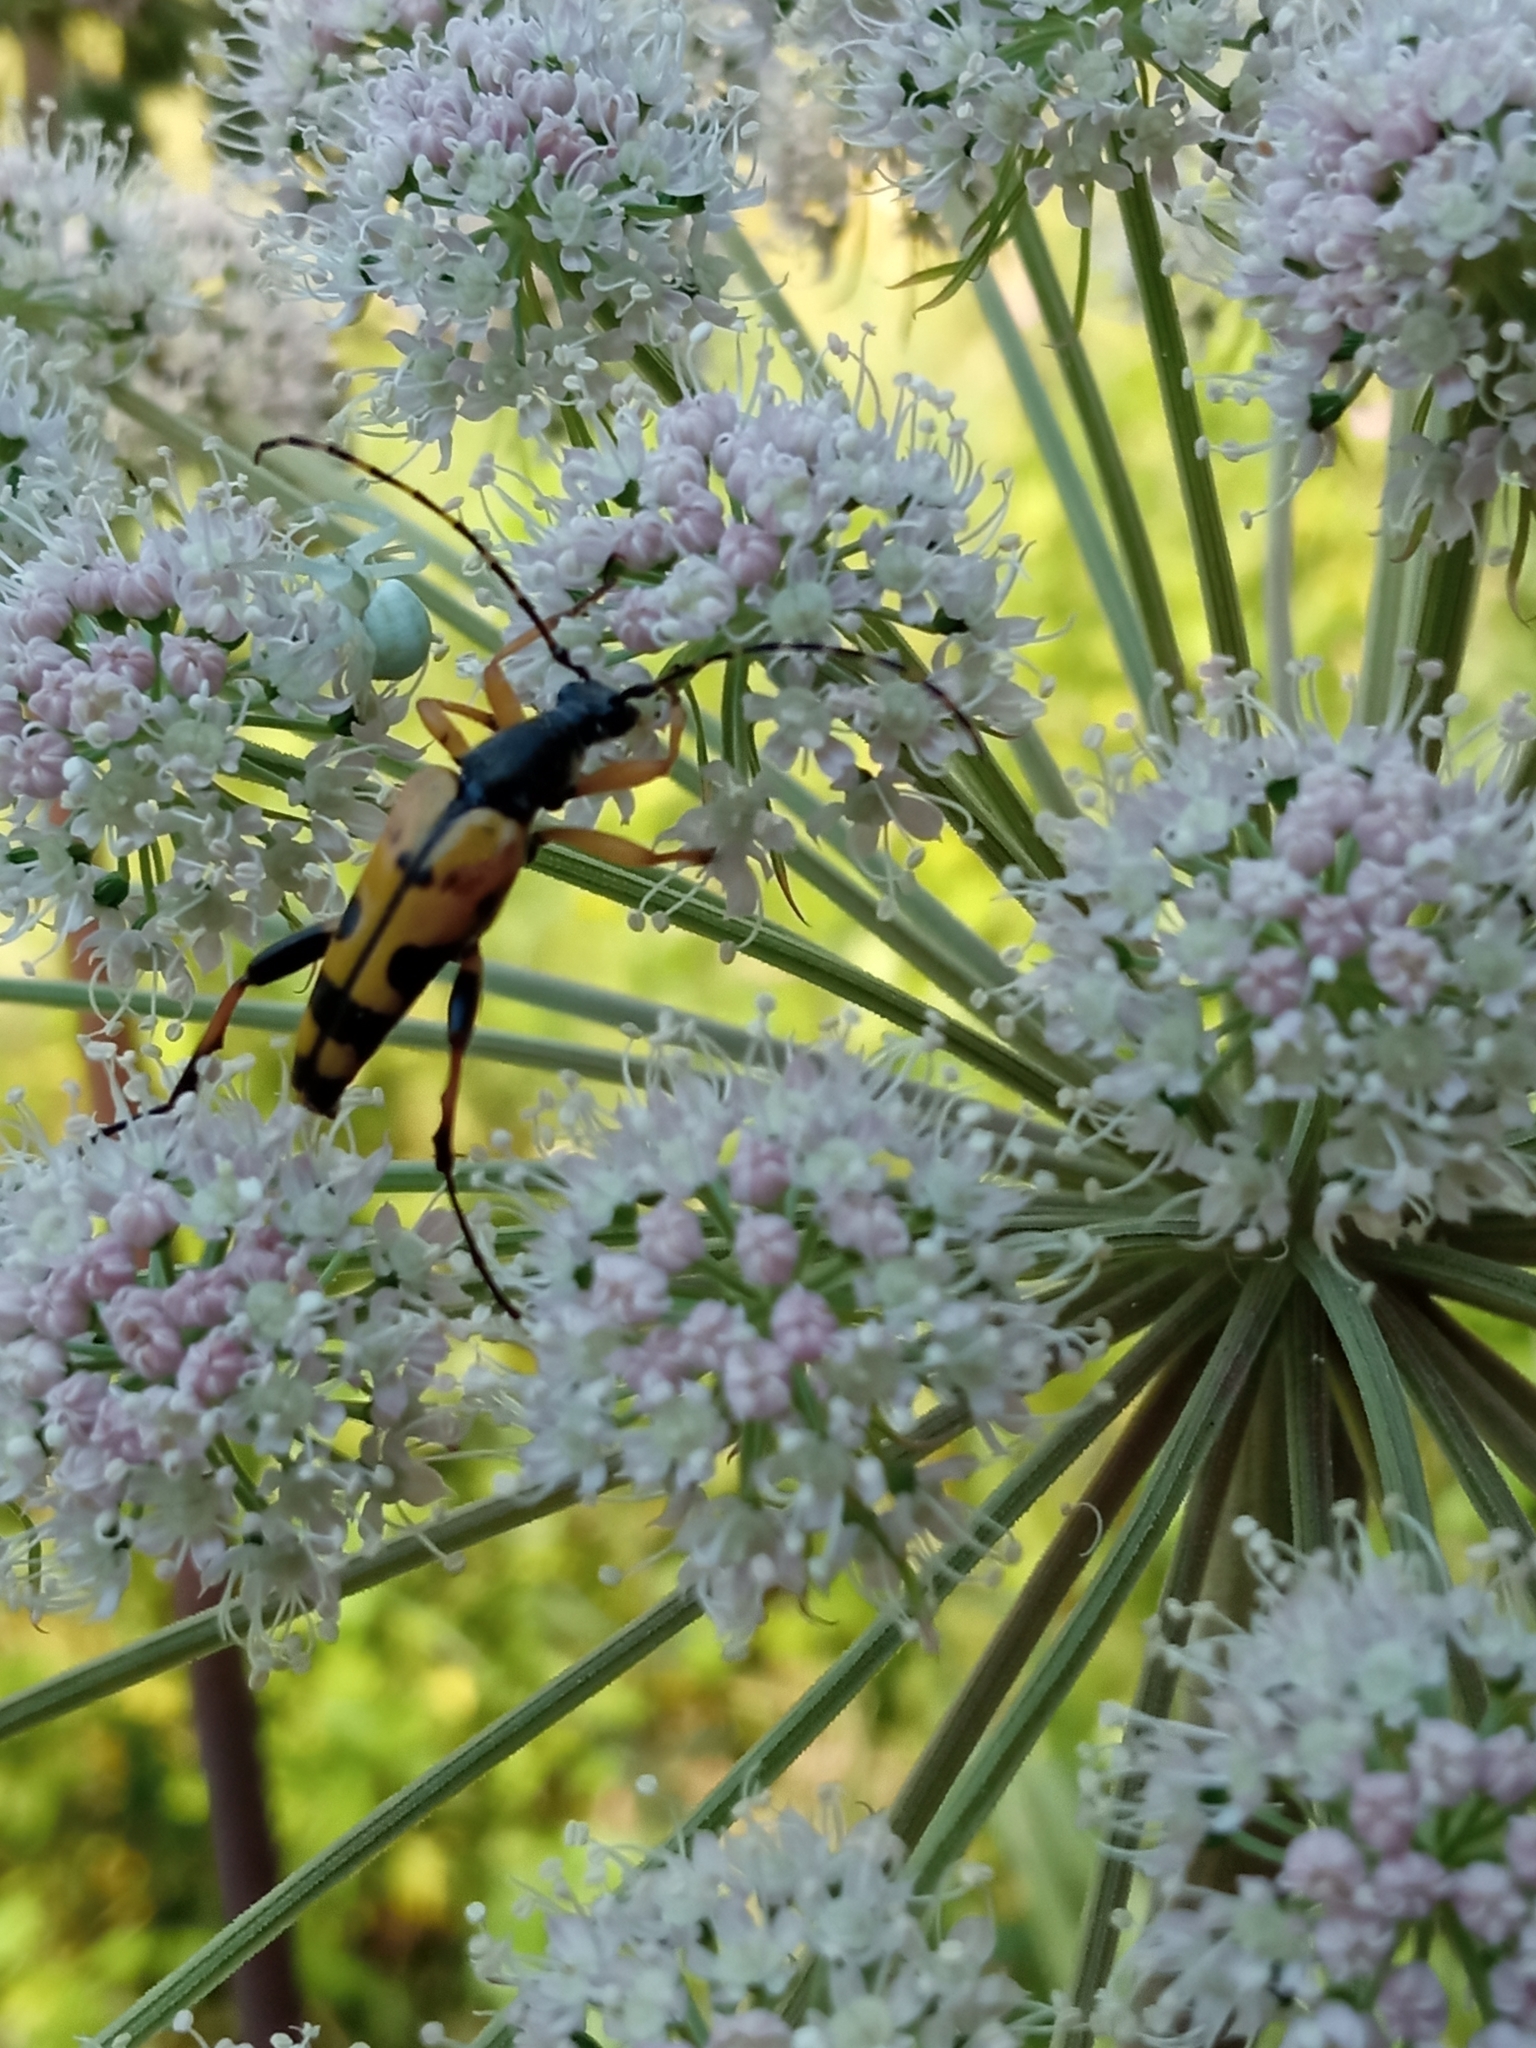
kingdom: Animalia
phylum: Arthropoda
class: Insecta
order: Coleoptera
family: Cerambycidae
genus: Rutpela
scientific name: Rutpela maculata
